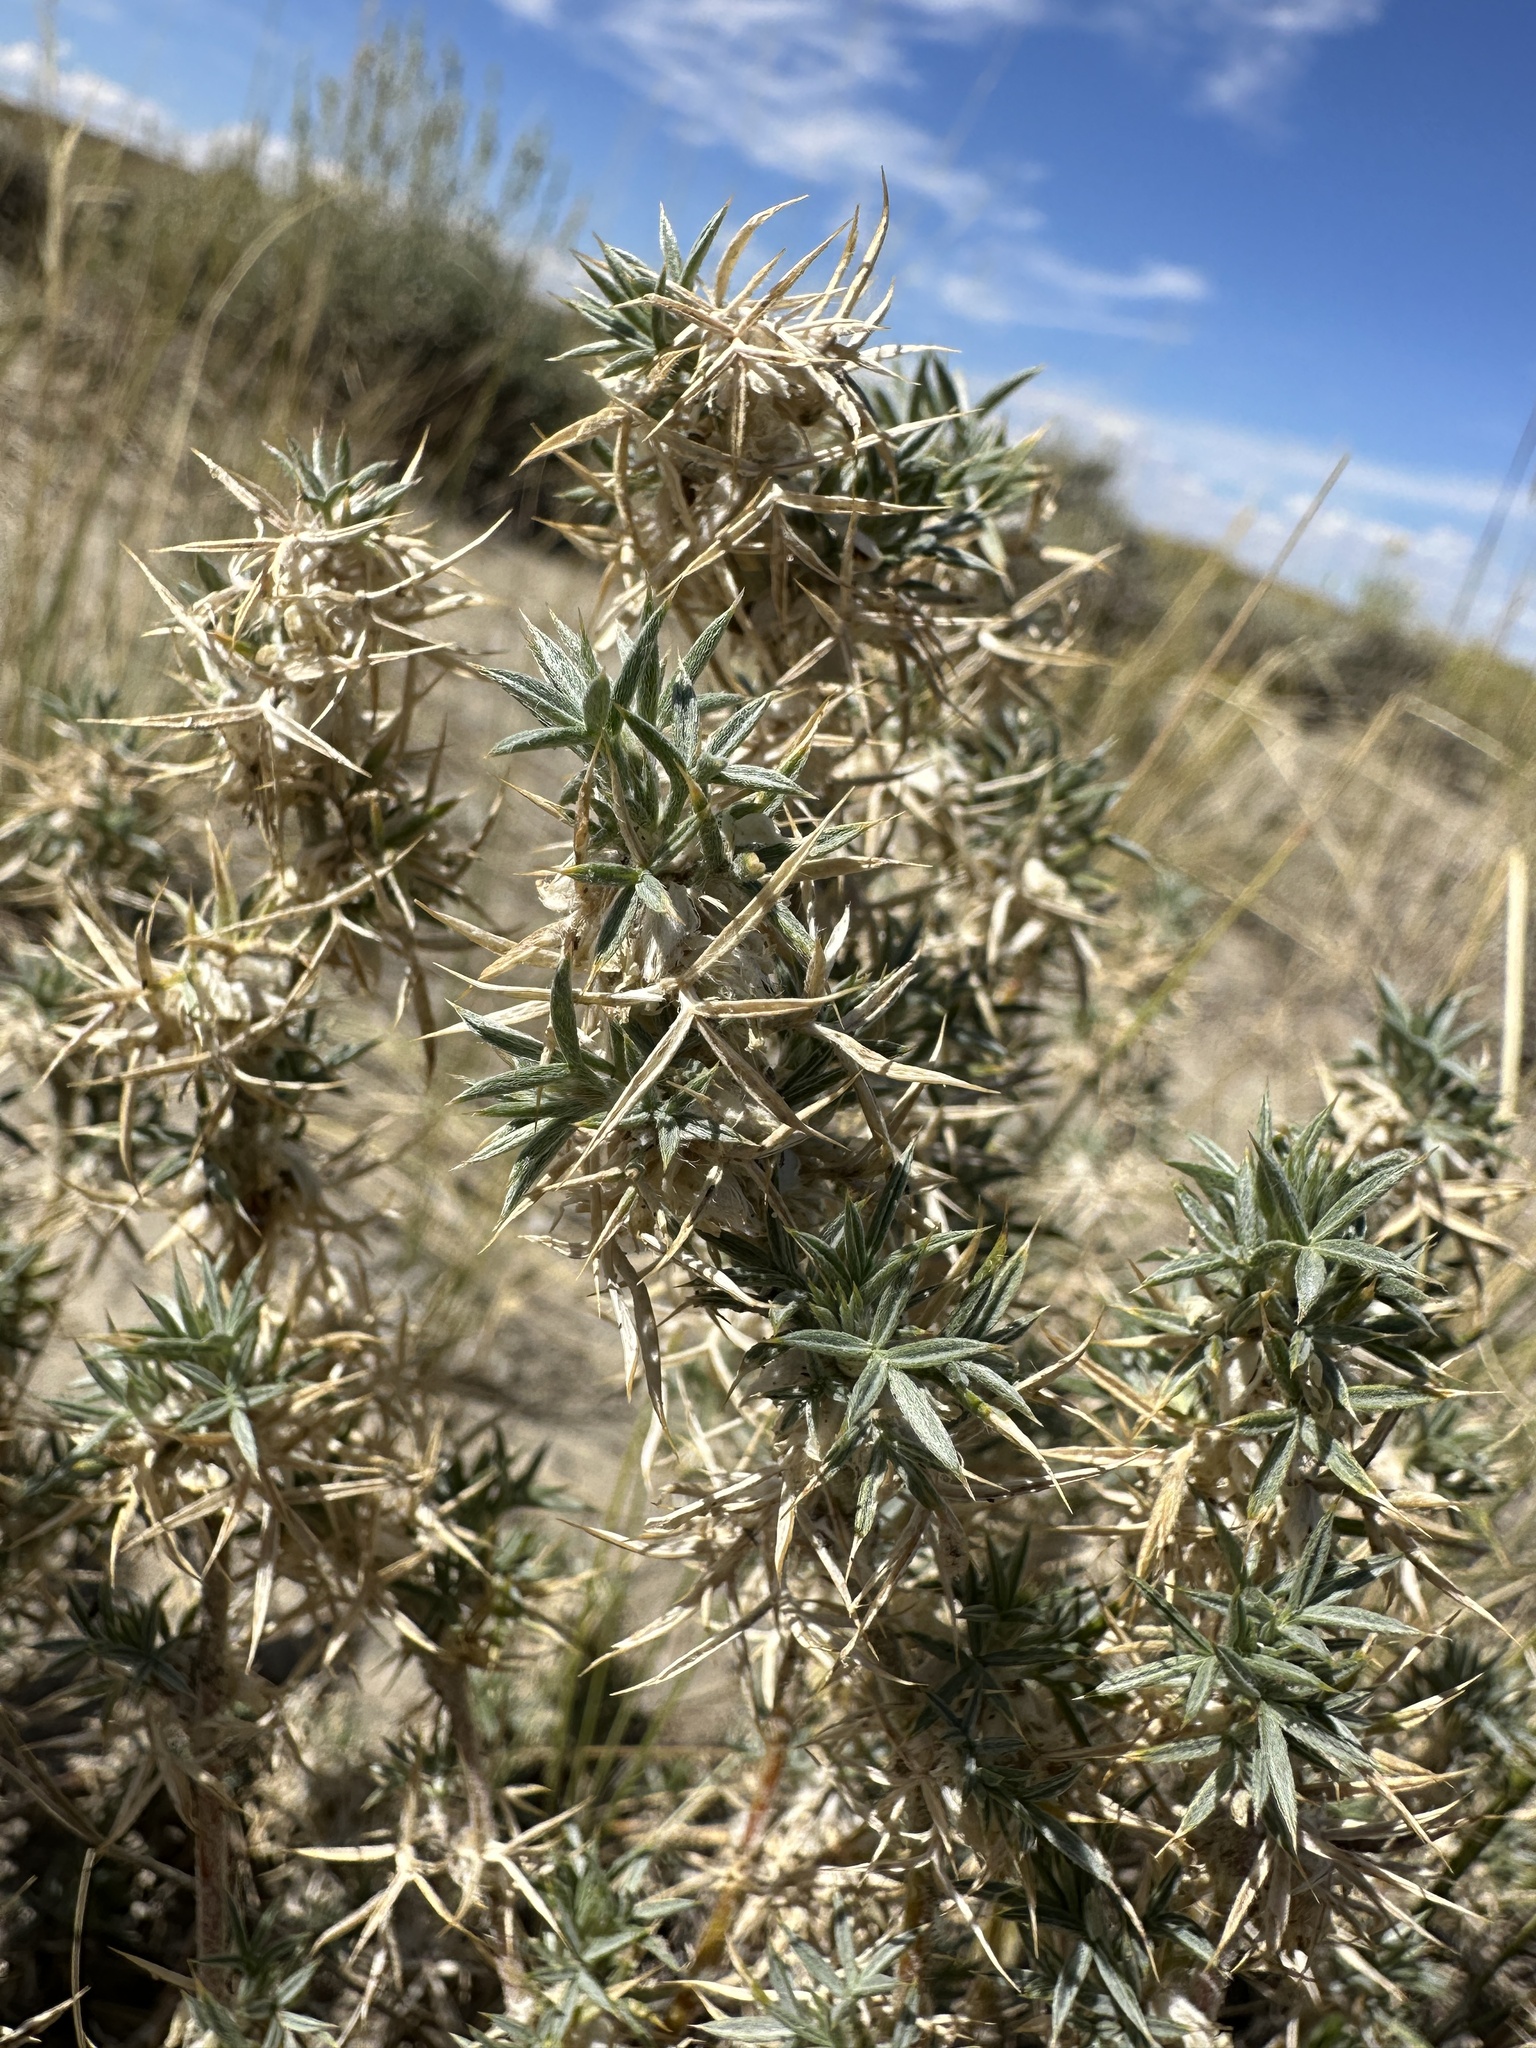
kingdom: Plantae
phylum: Tracheophyta
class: Magnoliopsida
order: Fabales
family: Fabaceae
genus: Astragalus
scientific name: Astragalus kentrophyta
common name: Prickly milk-vetch
